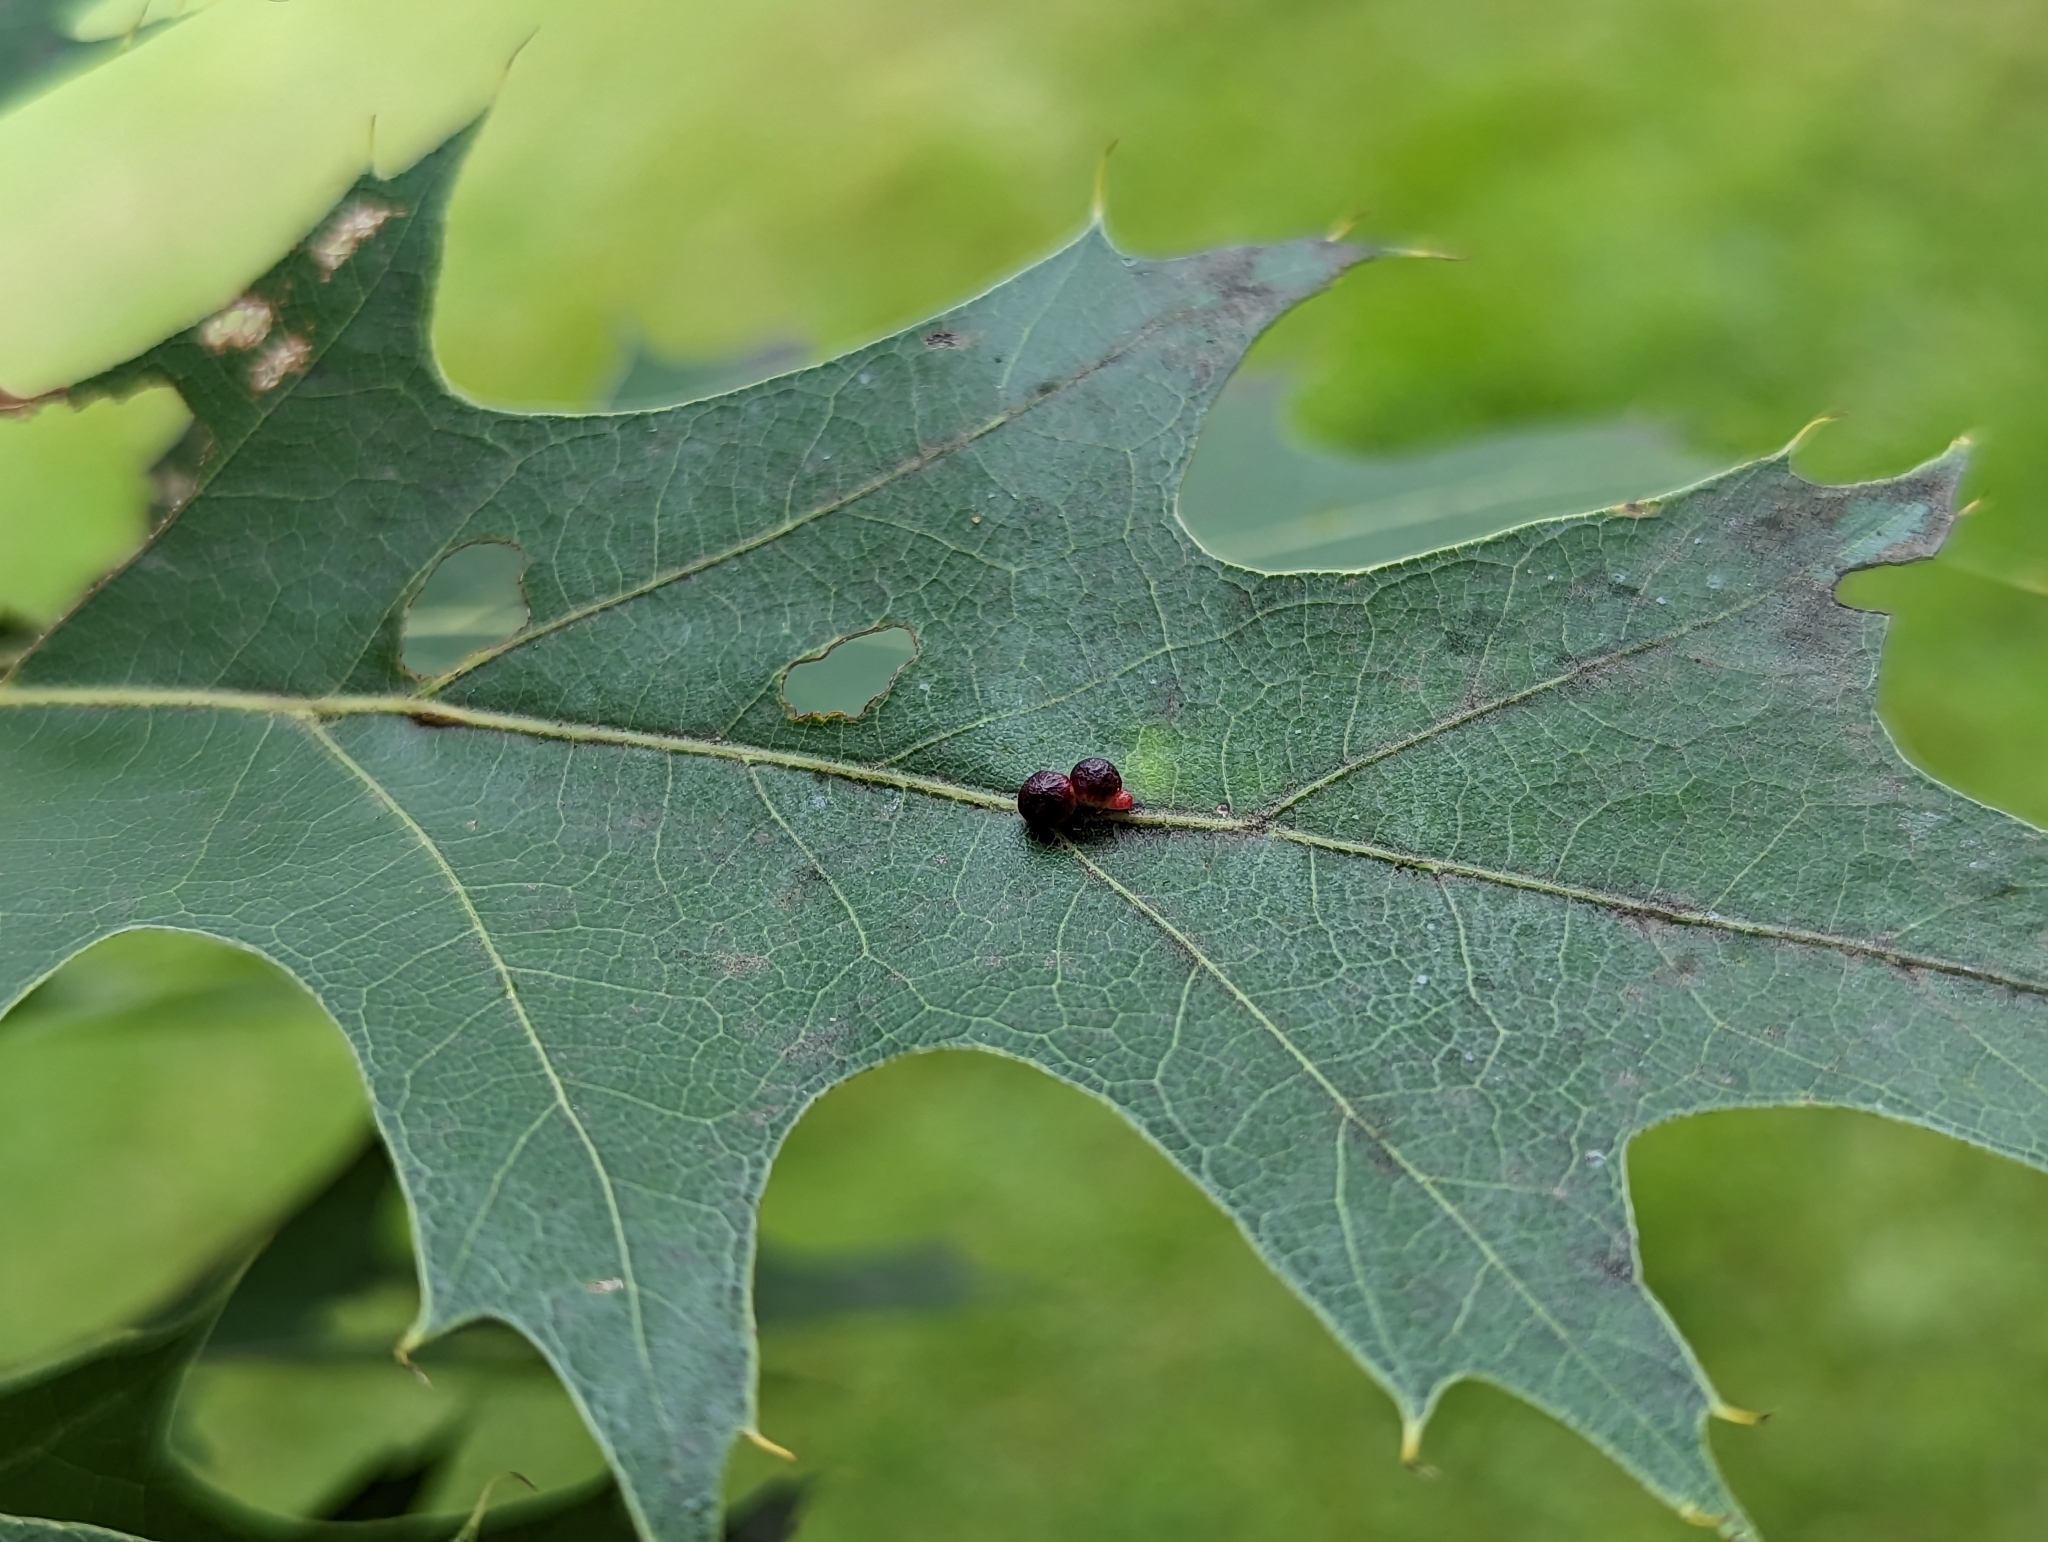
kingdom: Animalia
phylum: Arthropoda
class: Insecta
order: Hymenoptera
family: Cynipidae
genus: Zopheroteras
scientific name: Zopheroteras
